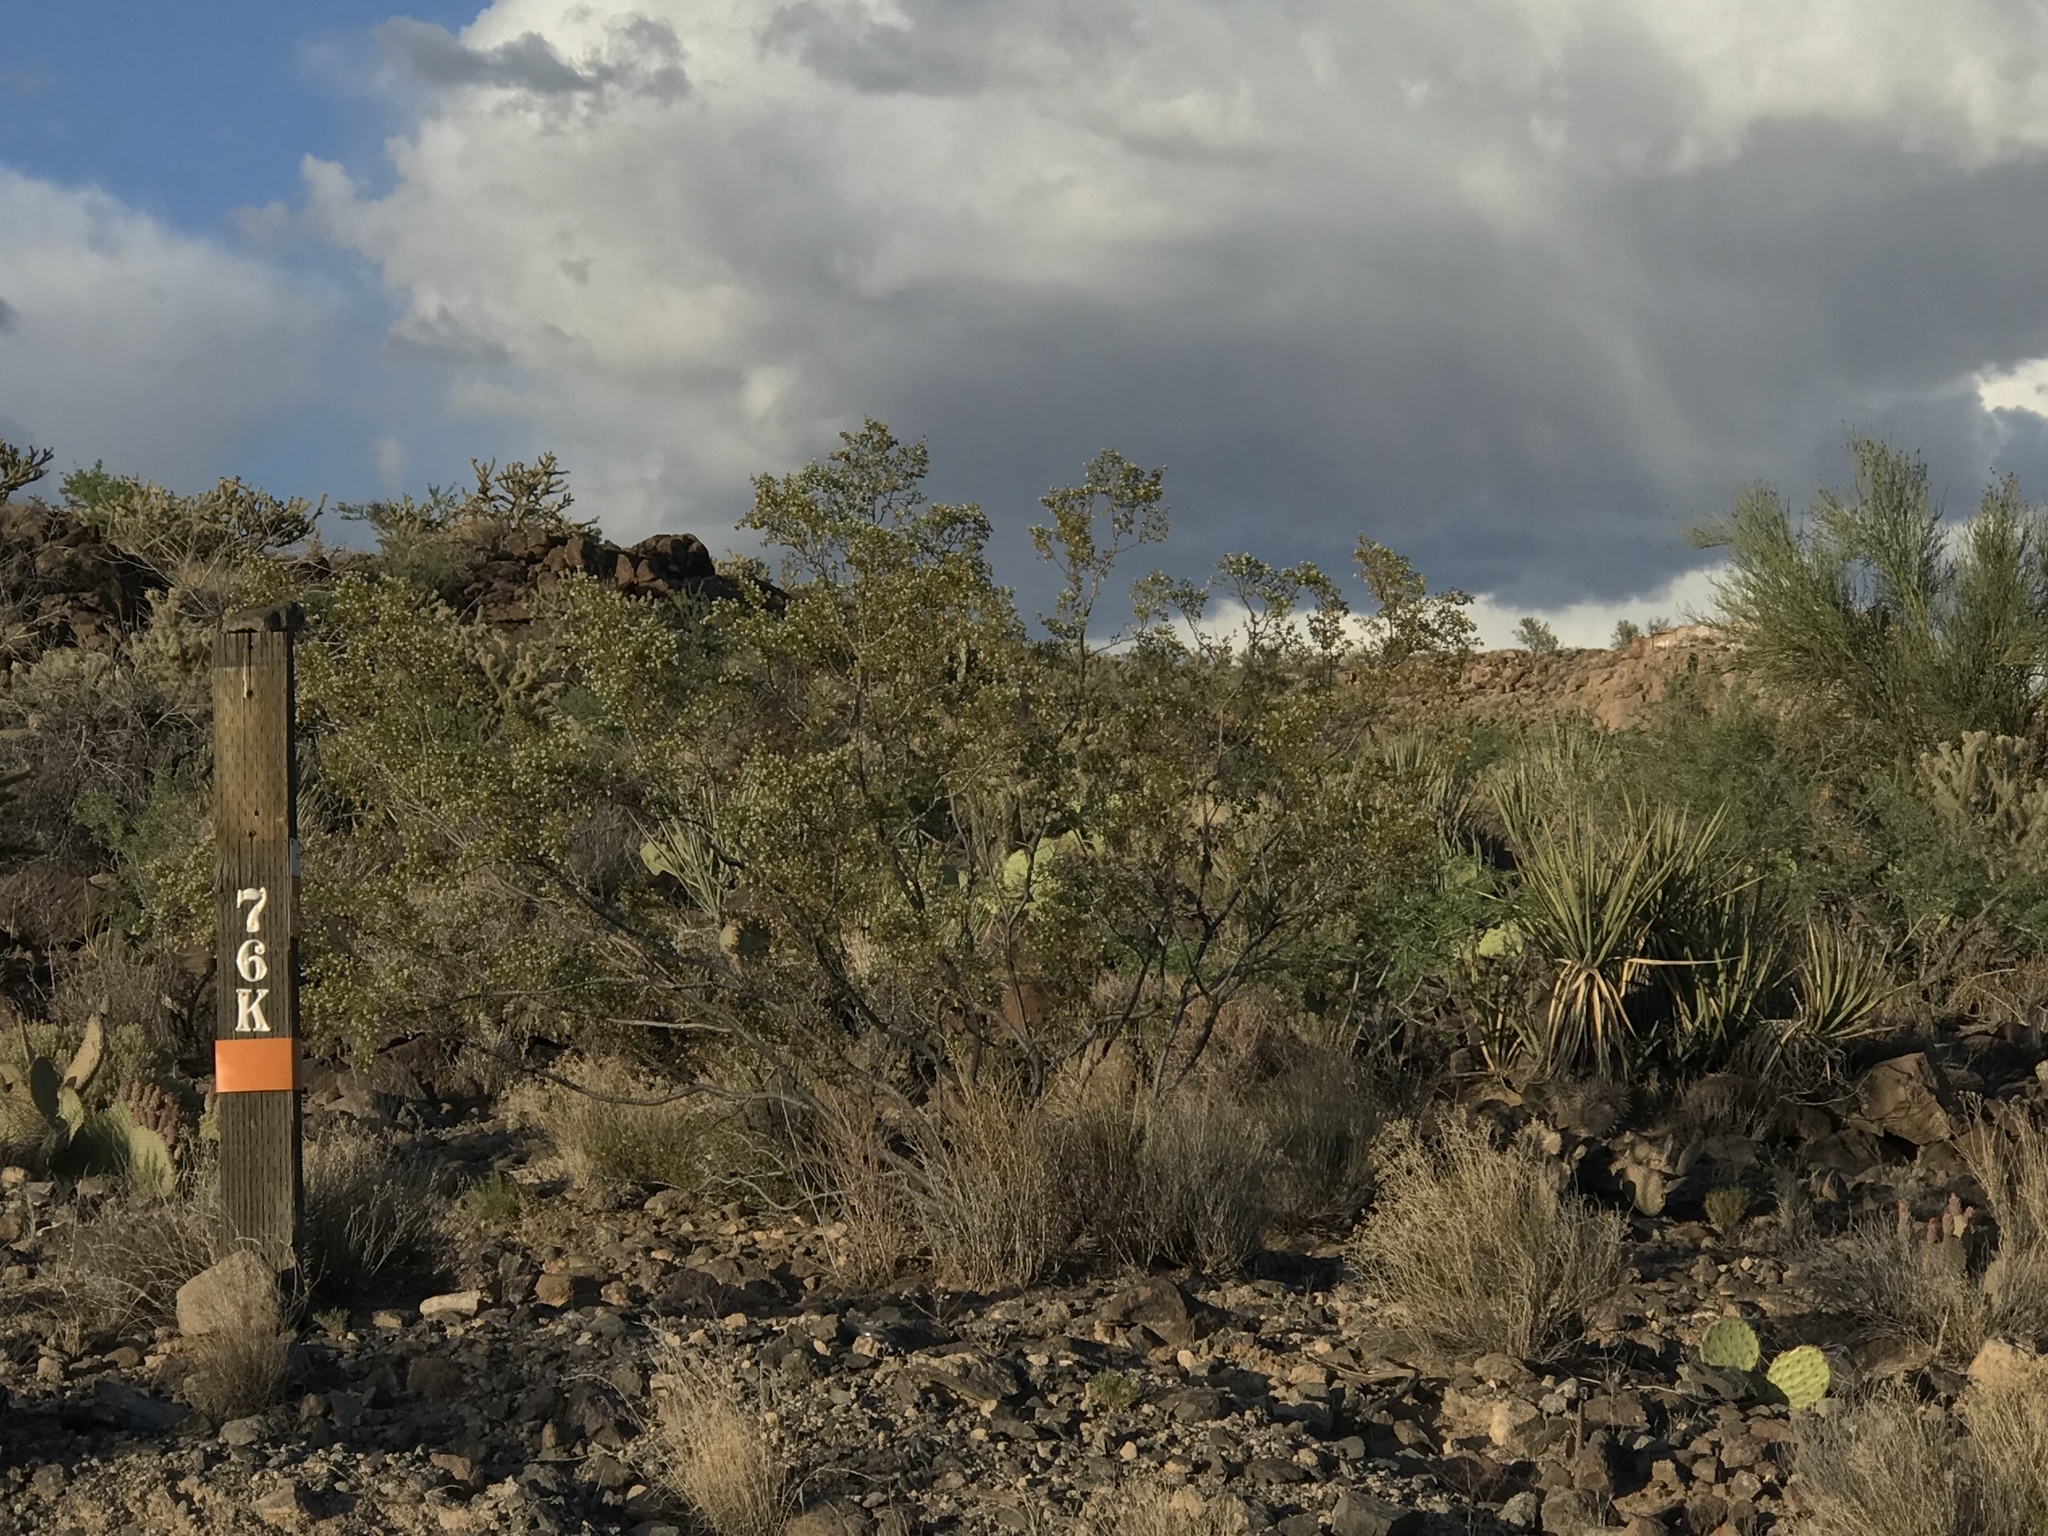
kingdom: Plantae
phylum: Tracheophyta
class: Magnoliopsida
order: Zygophyllales
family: Zygophyllaceae
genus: Larrea
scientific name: Larrea tridentata
